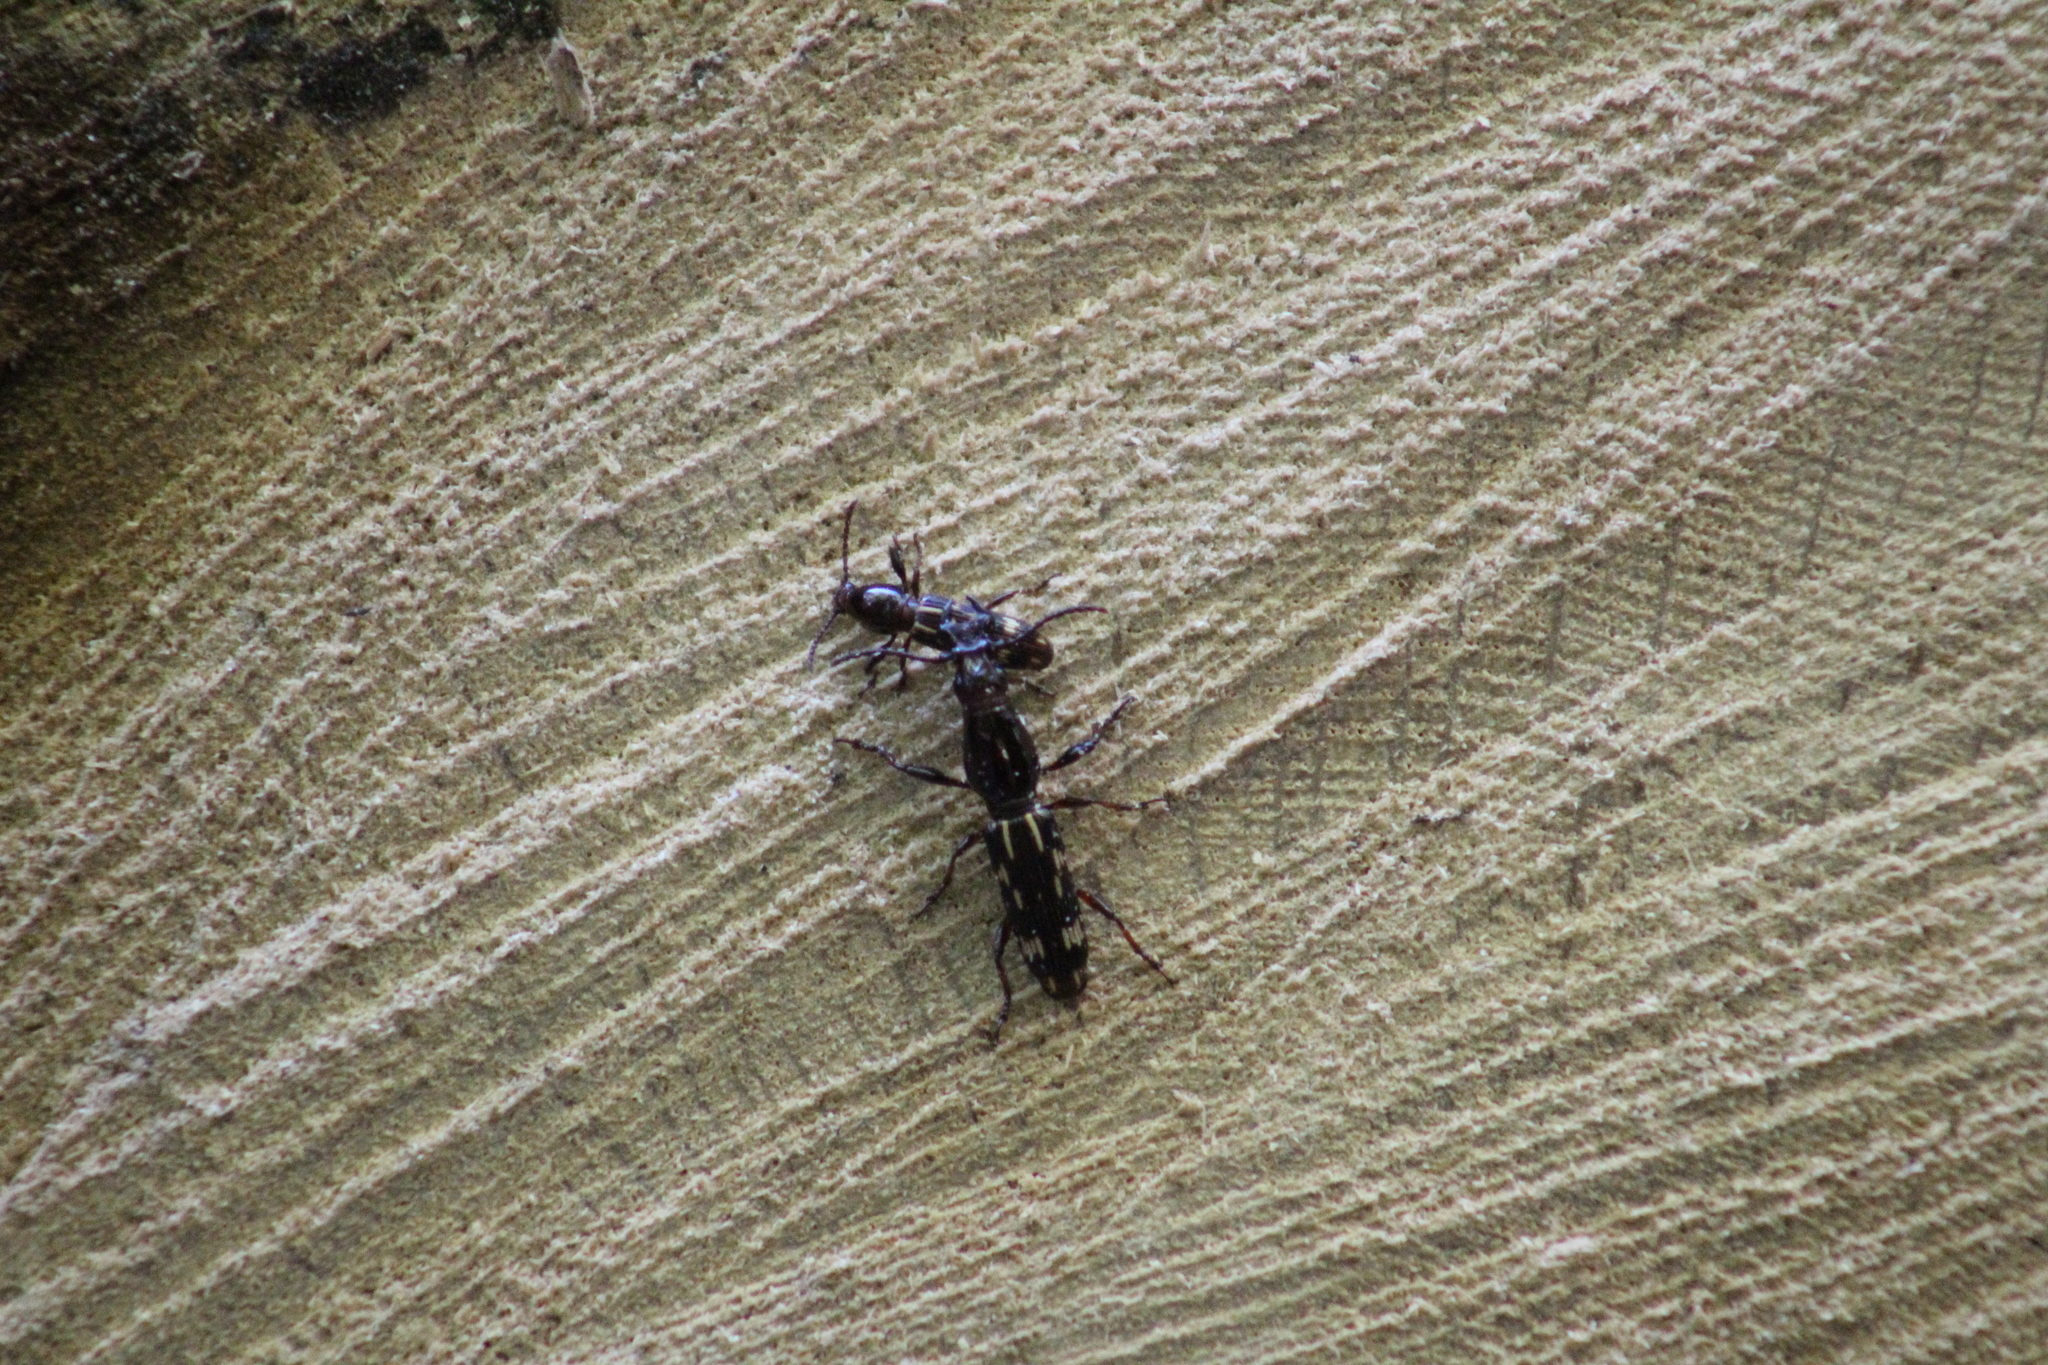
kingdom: Animalia
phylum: Arthropoda
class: Insecta
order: Coleoptera
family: Brentidae
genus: Arrenodes
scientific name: Arrenodes minutus
